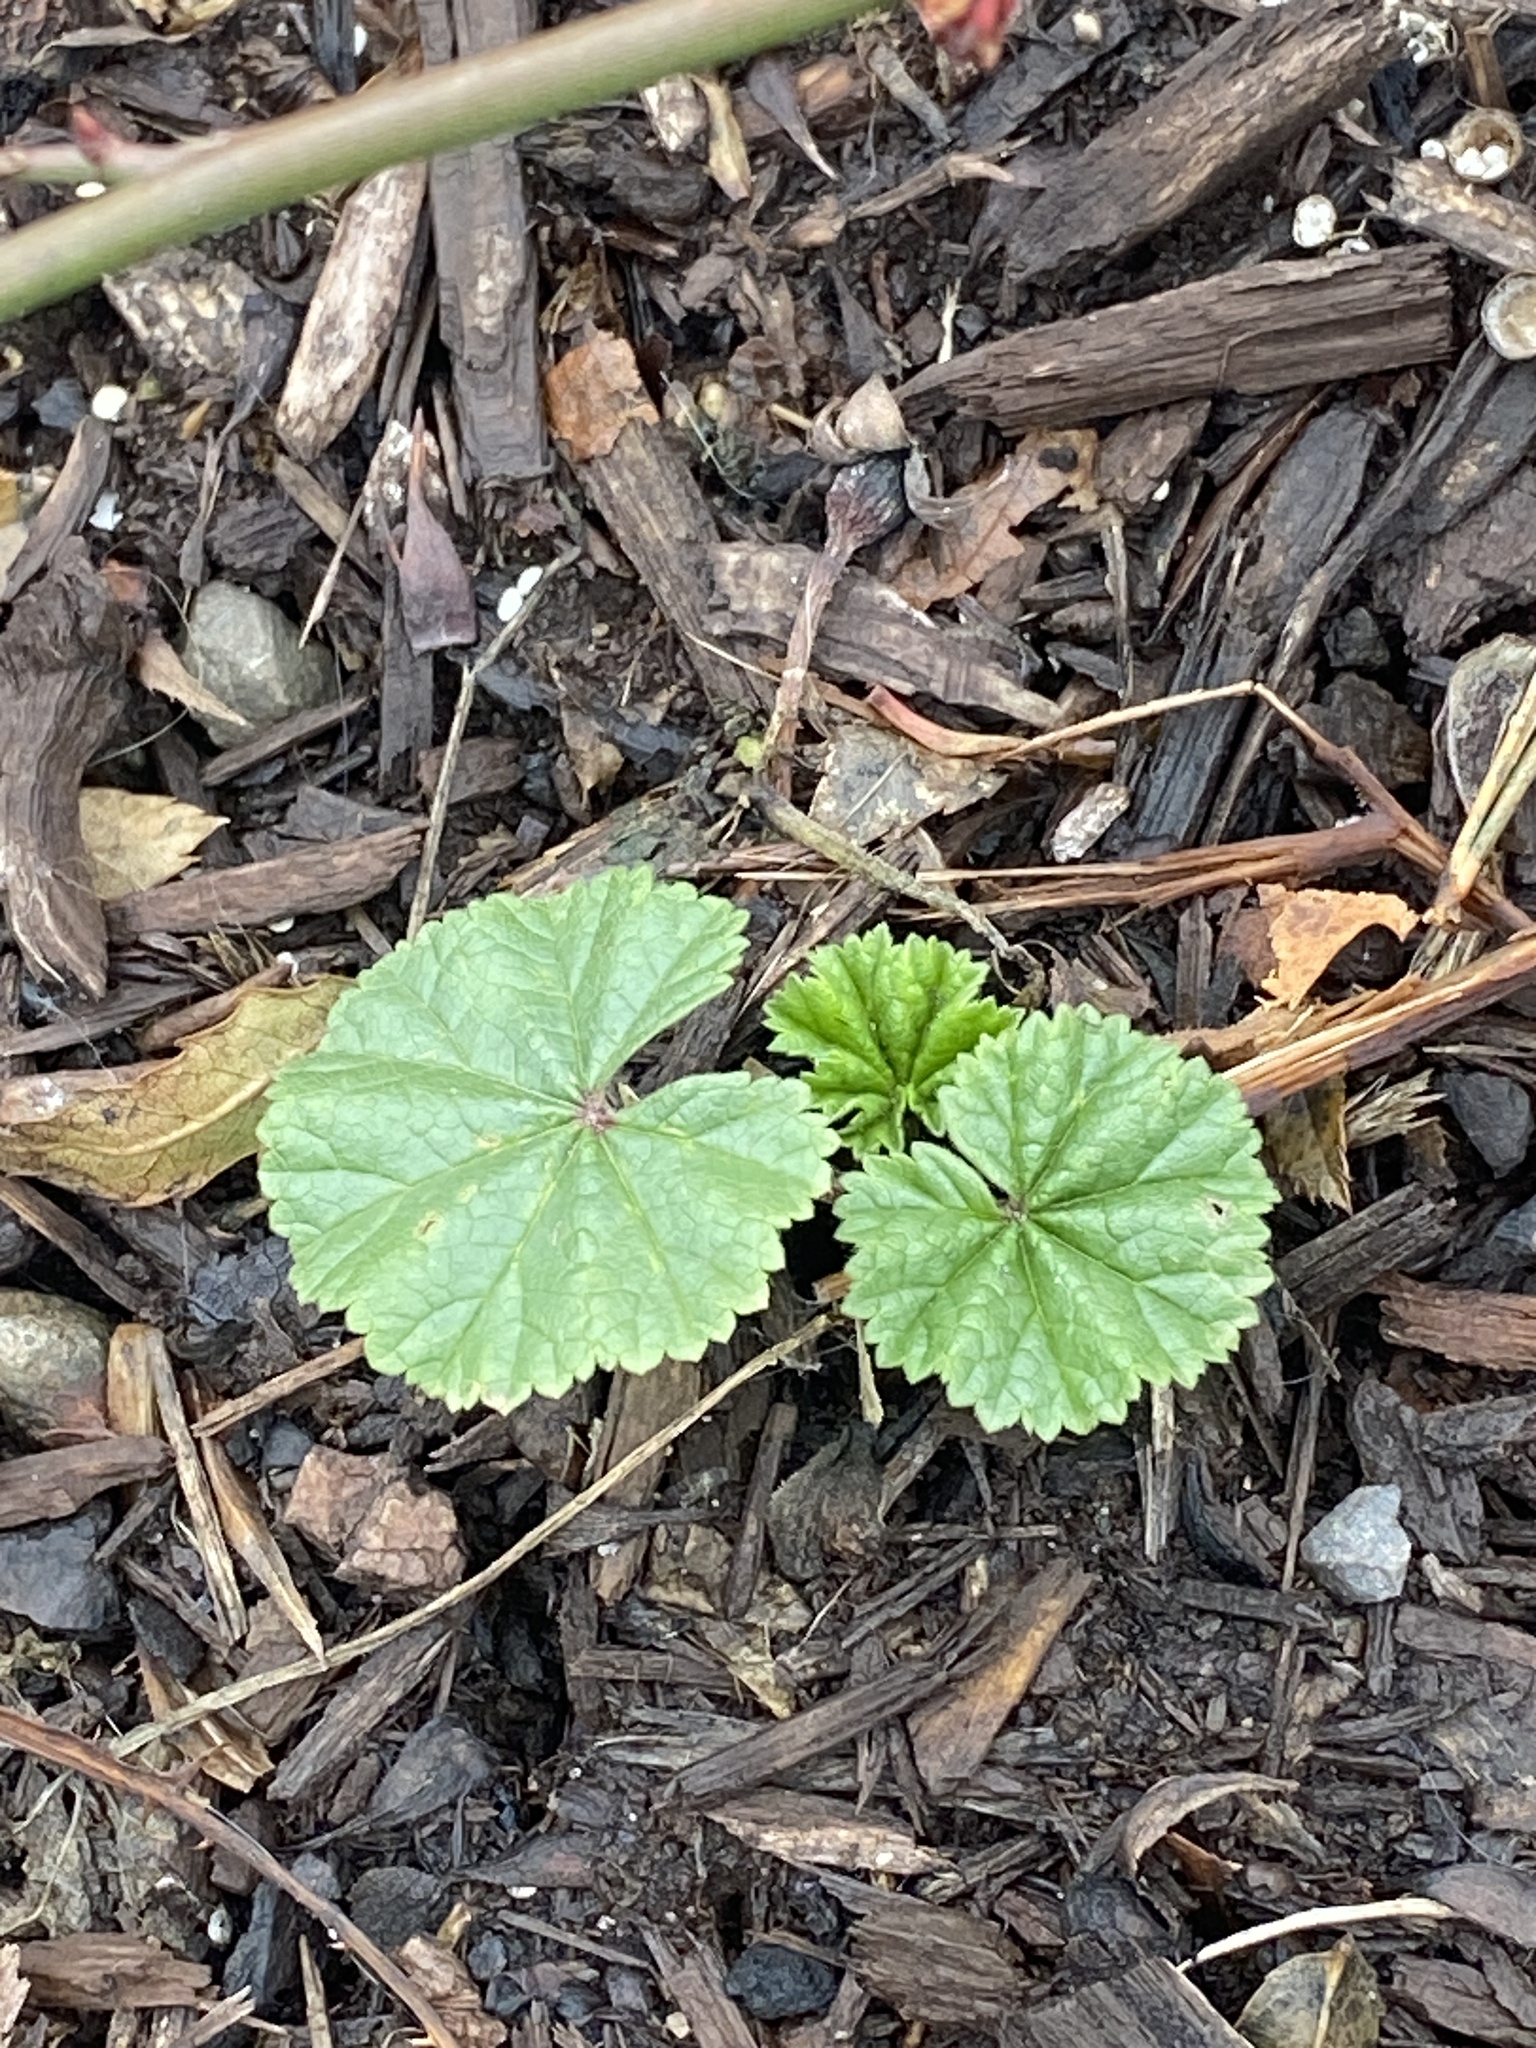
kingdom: Plantae
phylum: Tracheophyta
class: Magnoliopsida
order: Malvales
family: Malvaceae
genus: Malva
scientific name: Malva neglecta
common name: Common mallow
